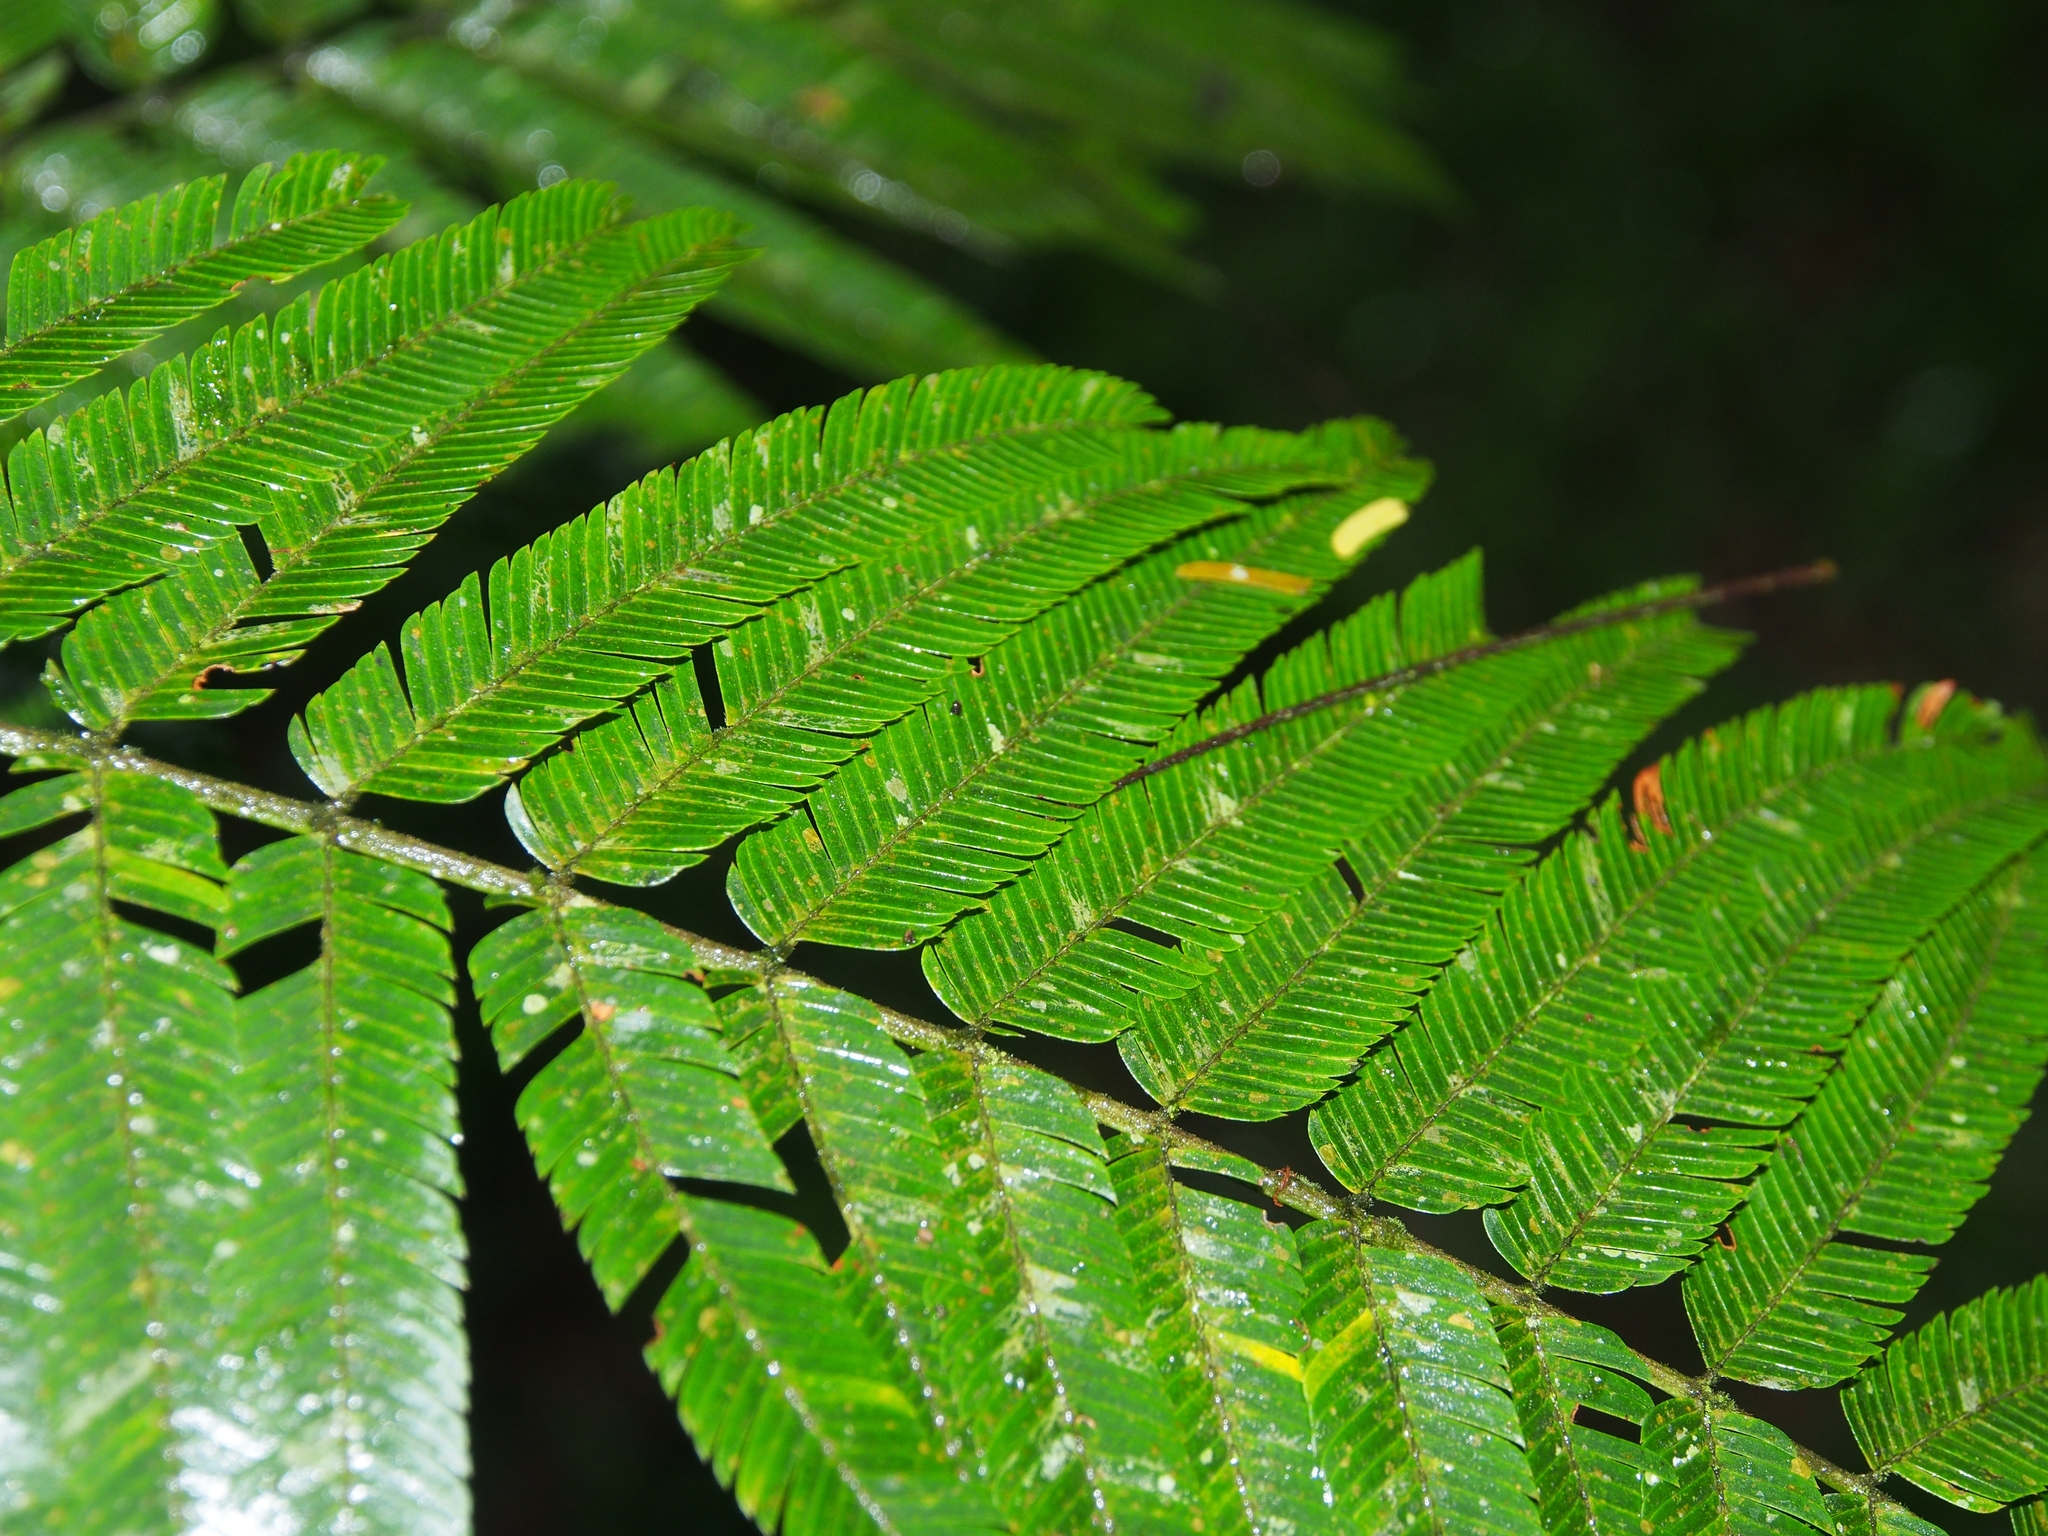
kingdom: Plantae
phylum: Tracheophyta
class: Magnoliopsida
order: Fabales
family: Fabaceae
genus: Pentaclethra
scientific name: Pentaclethra macroloba
